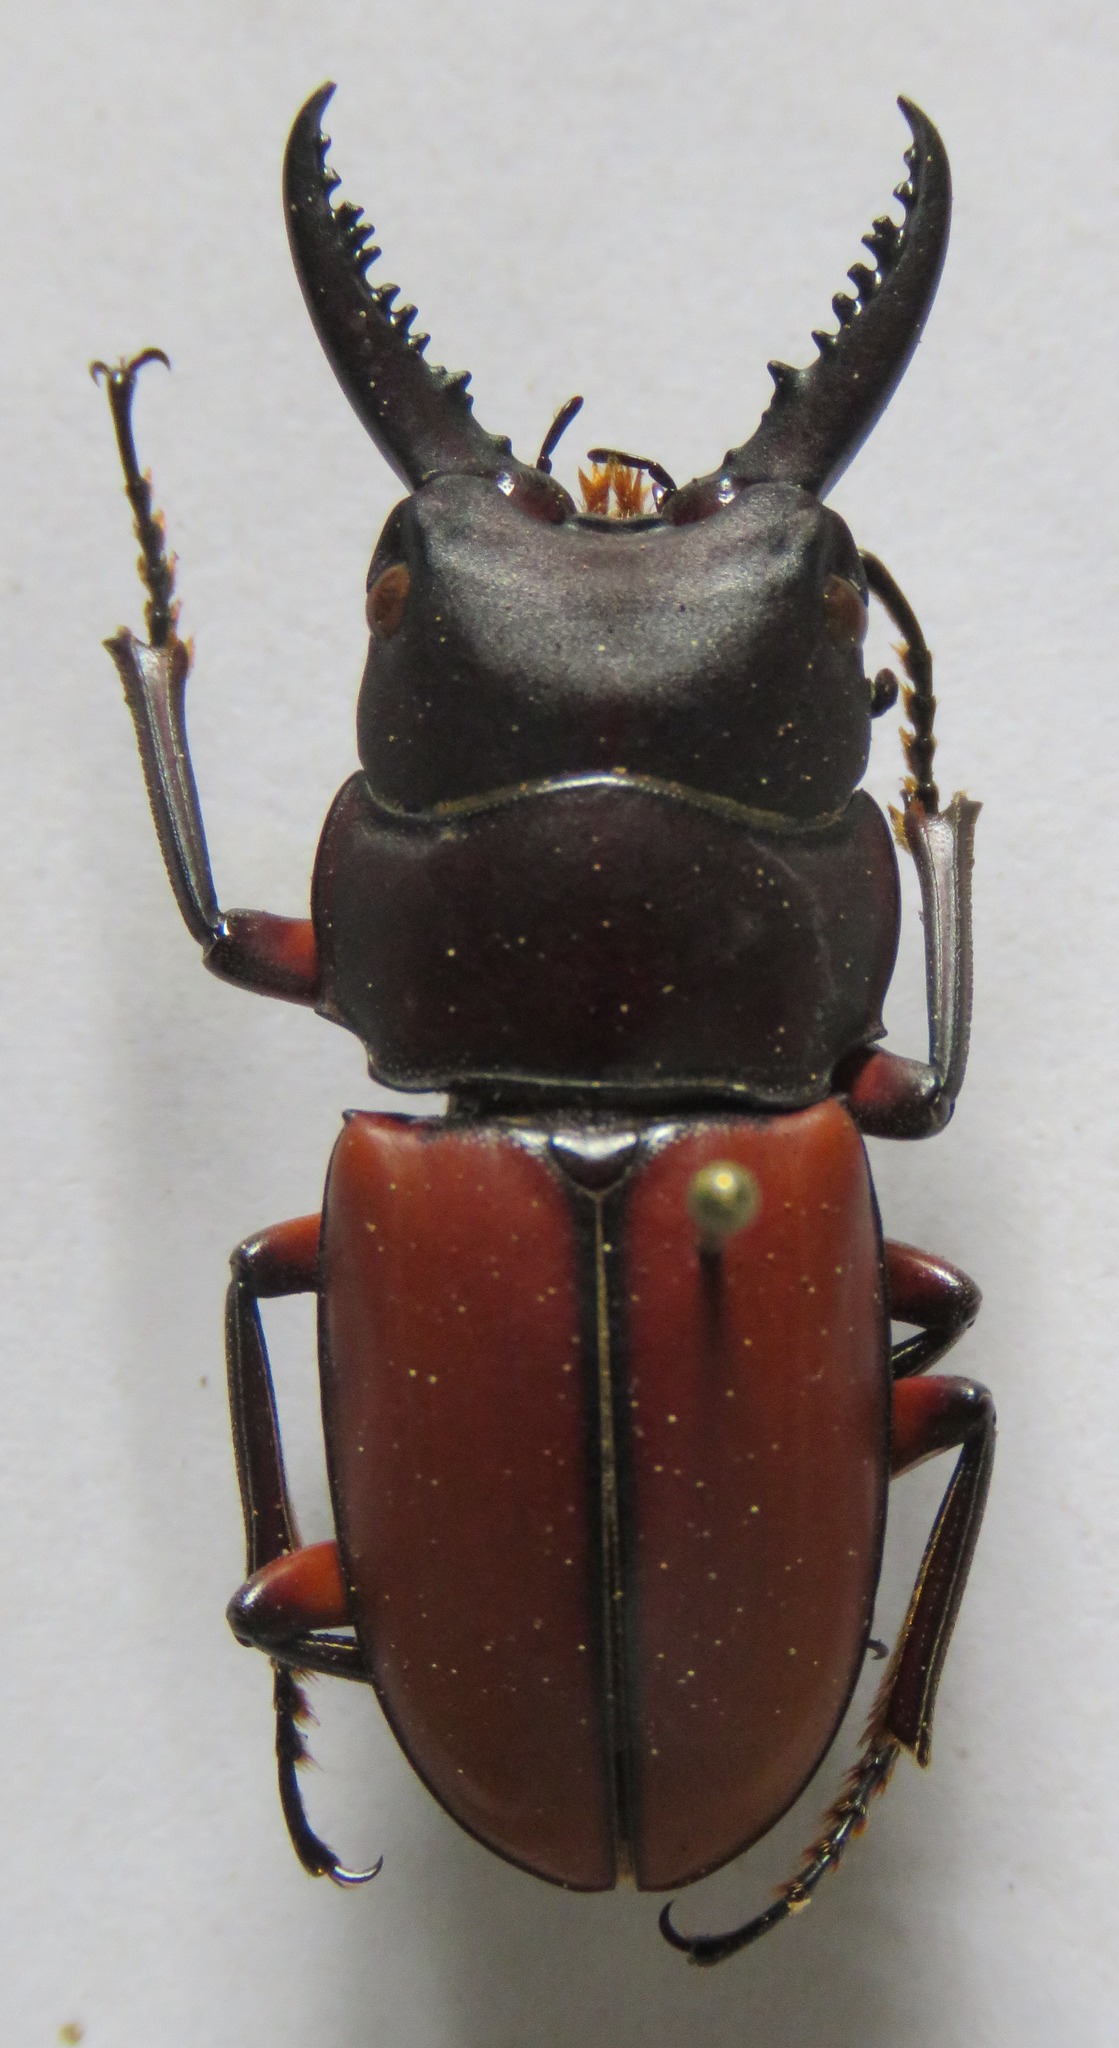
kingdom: Animalia
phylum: Arthropoda
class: Insecta
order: Coleoptera
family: Lucanidae
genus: Prosopocoilus
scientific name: Prosopocoilus bruijni
